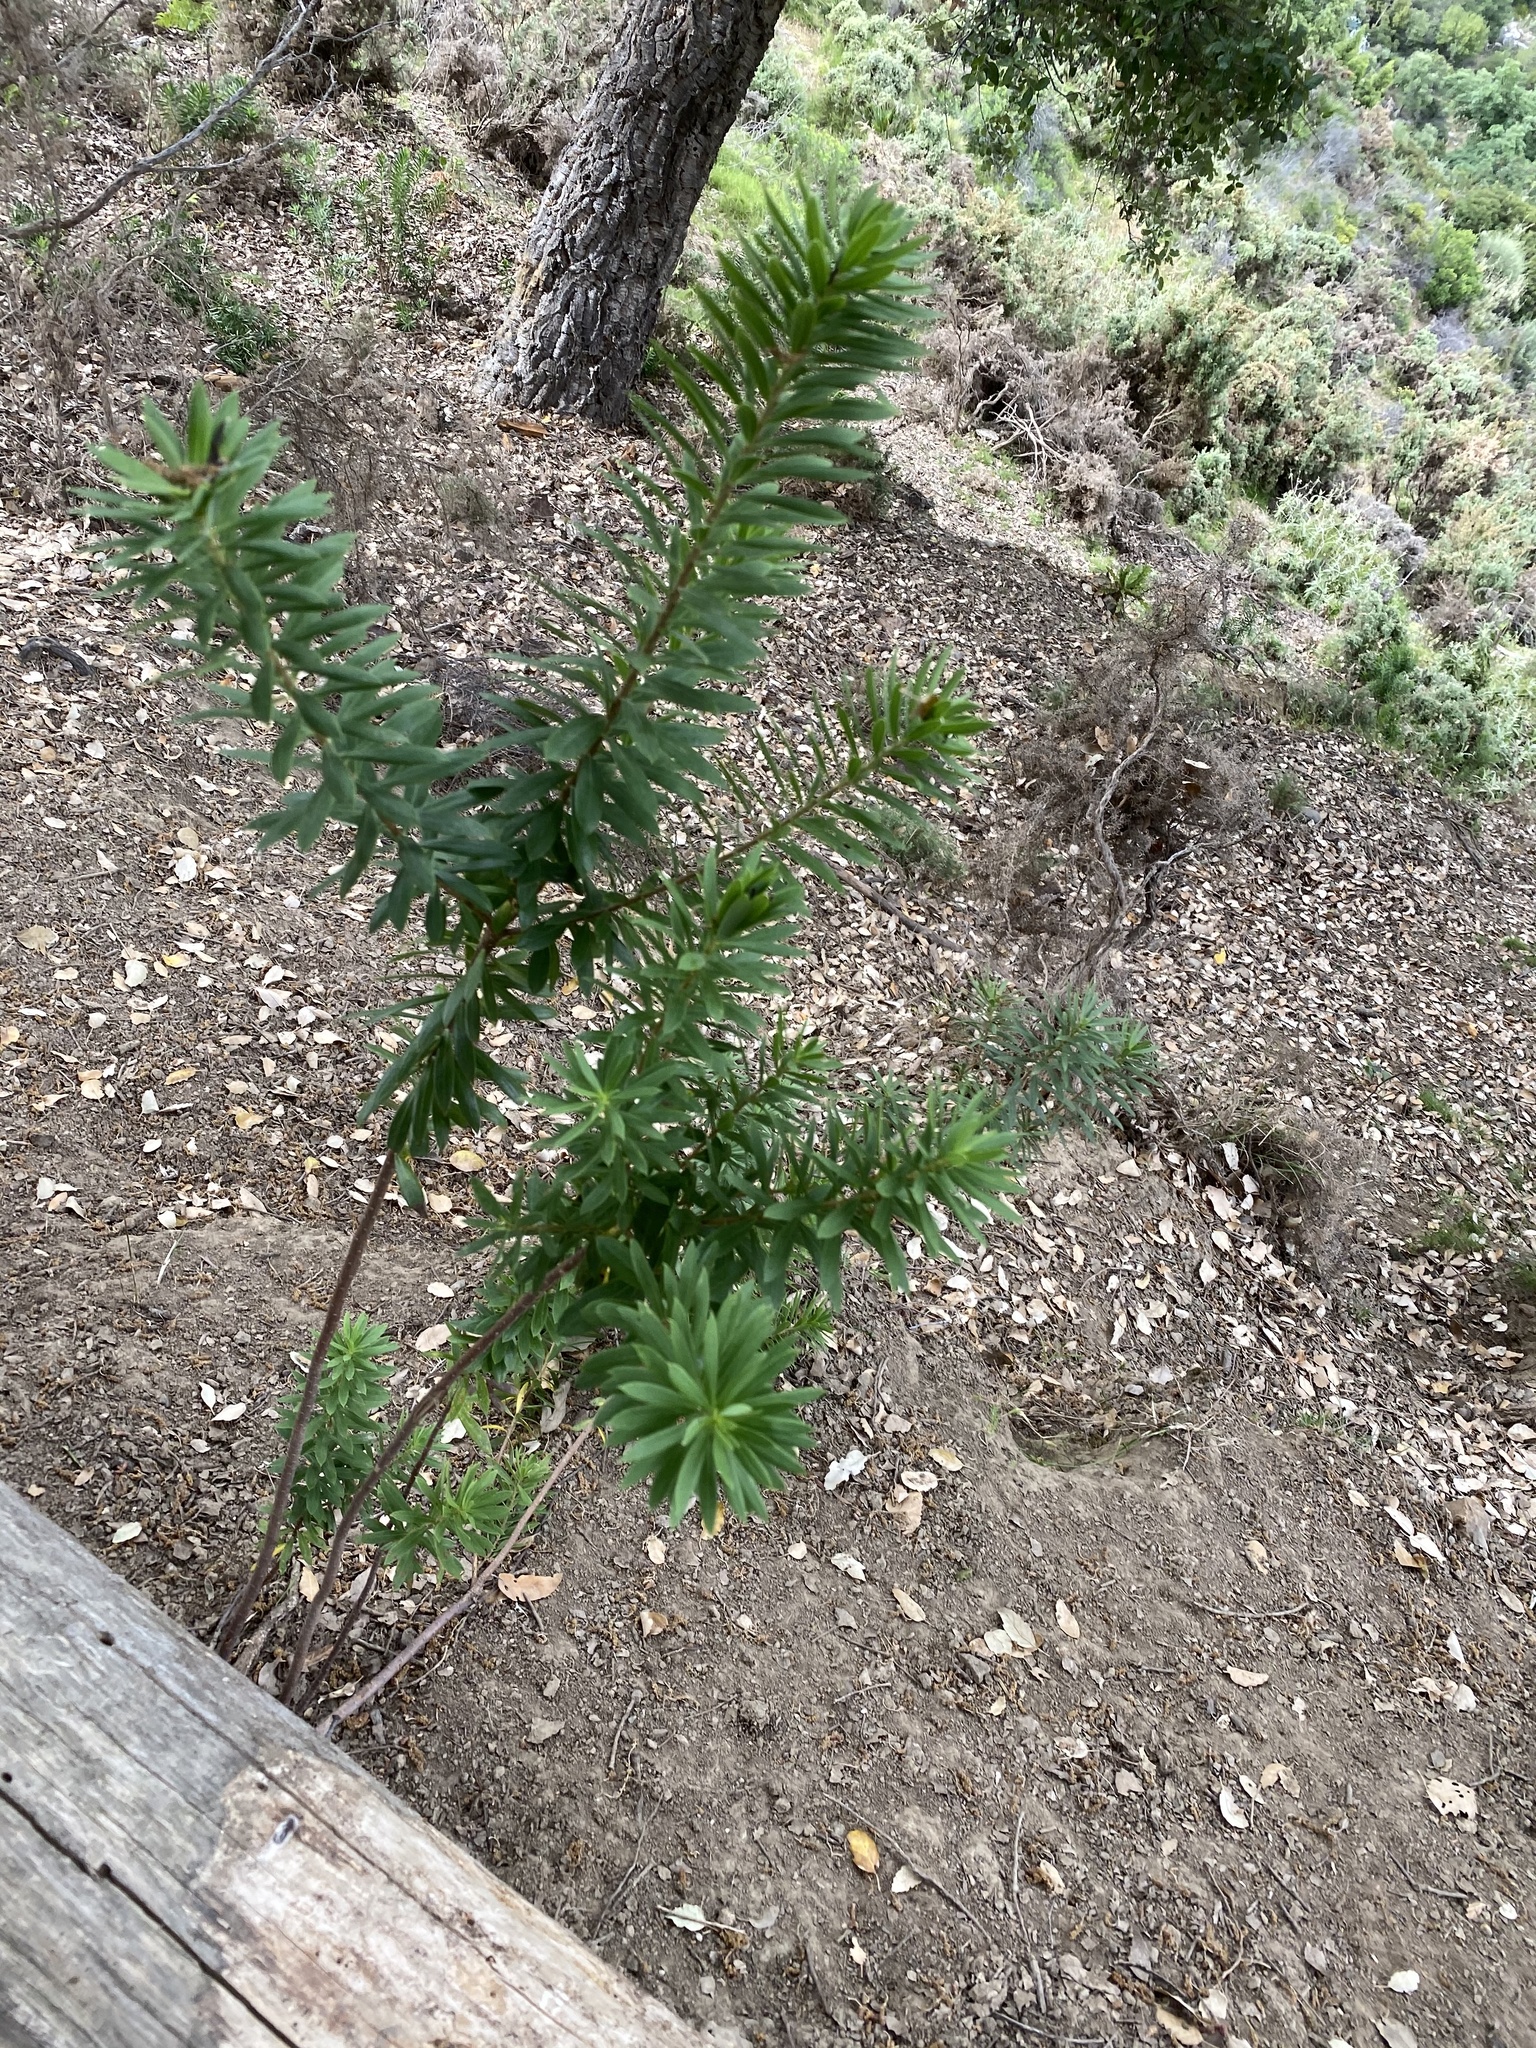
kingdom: Plantae
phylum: Tracheophyta
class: Magnoliopsida
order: Malvales
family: Thymelaeaceae
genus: Daphne
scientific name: Daphne gnidium
